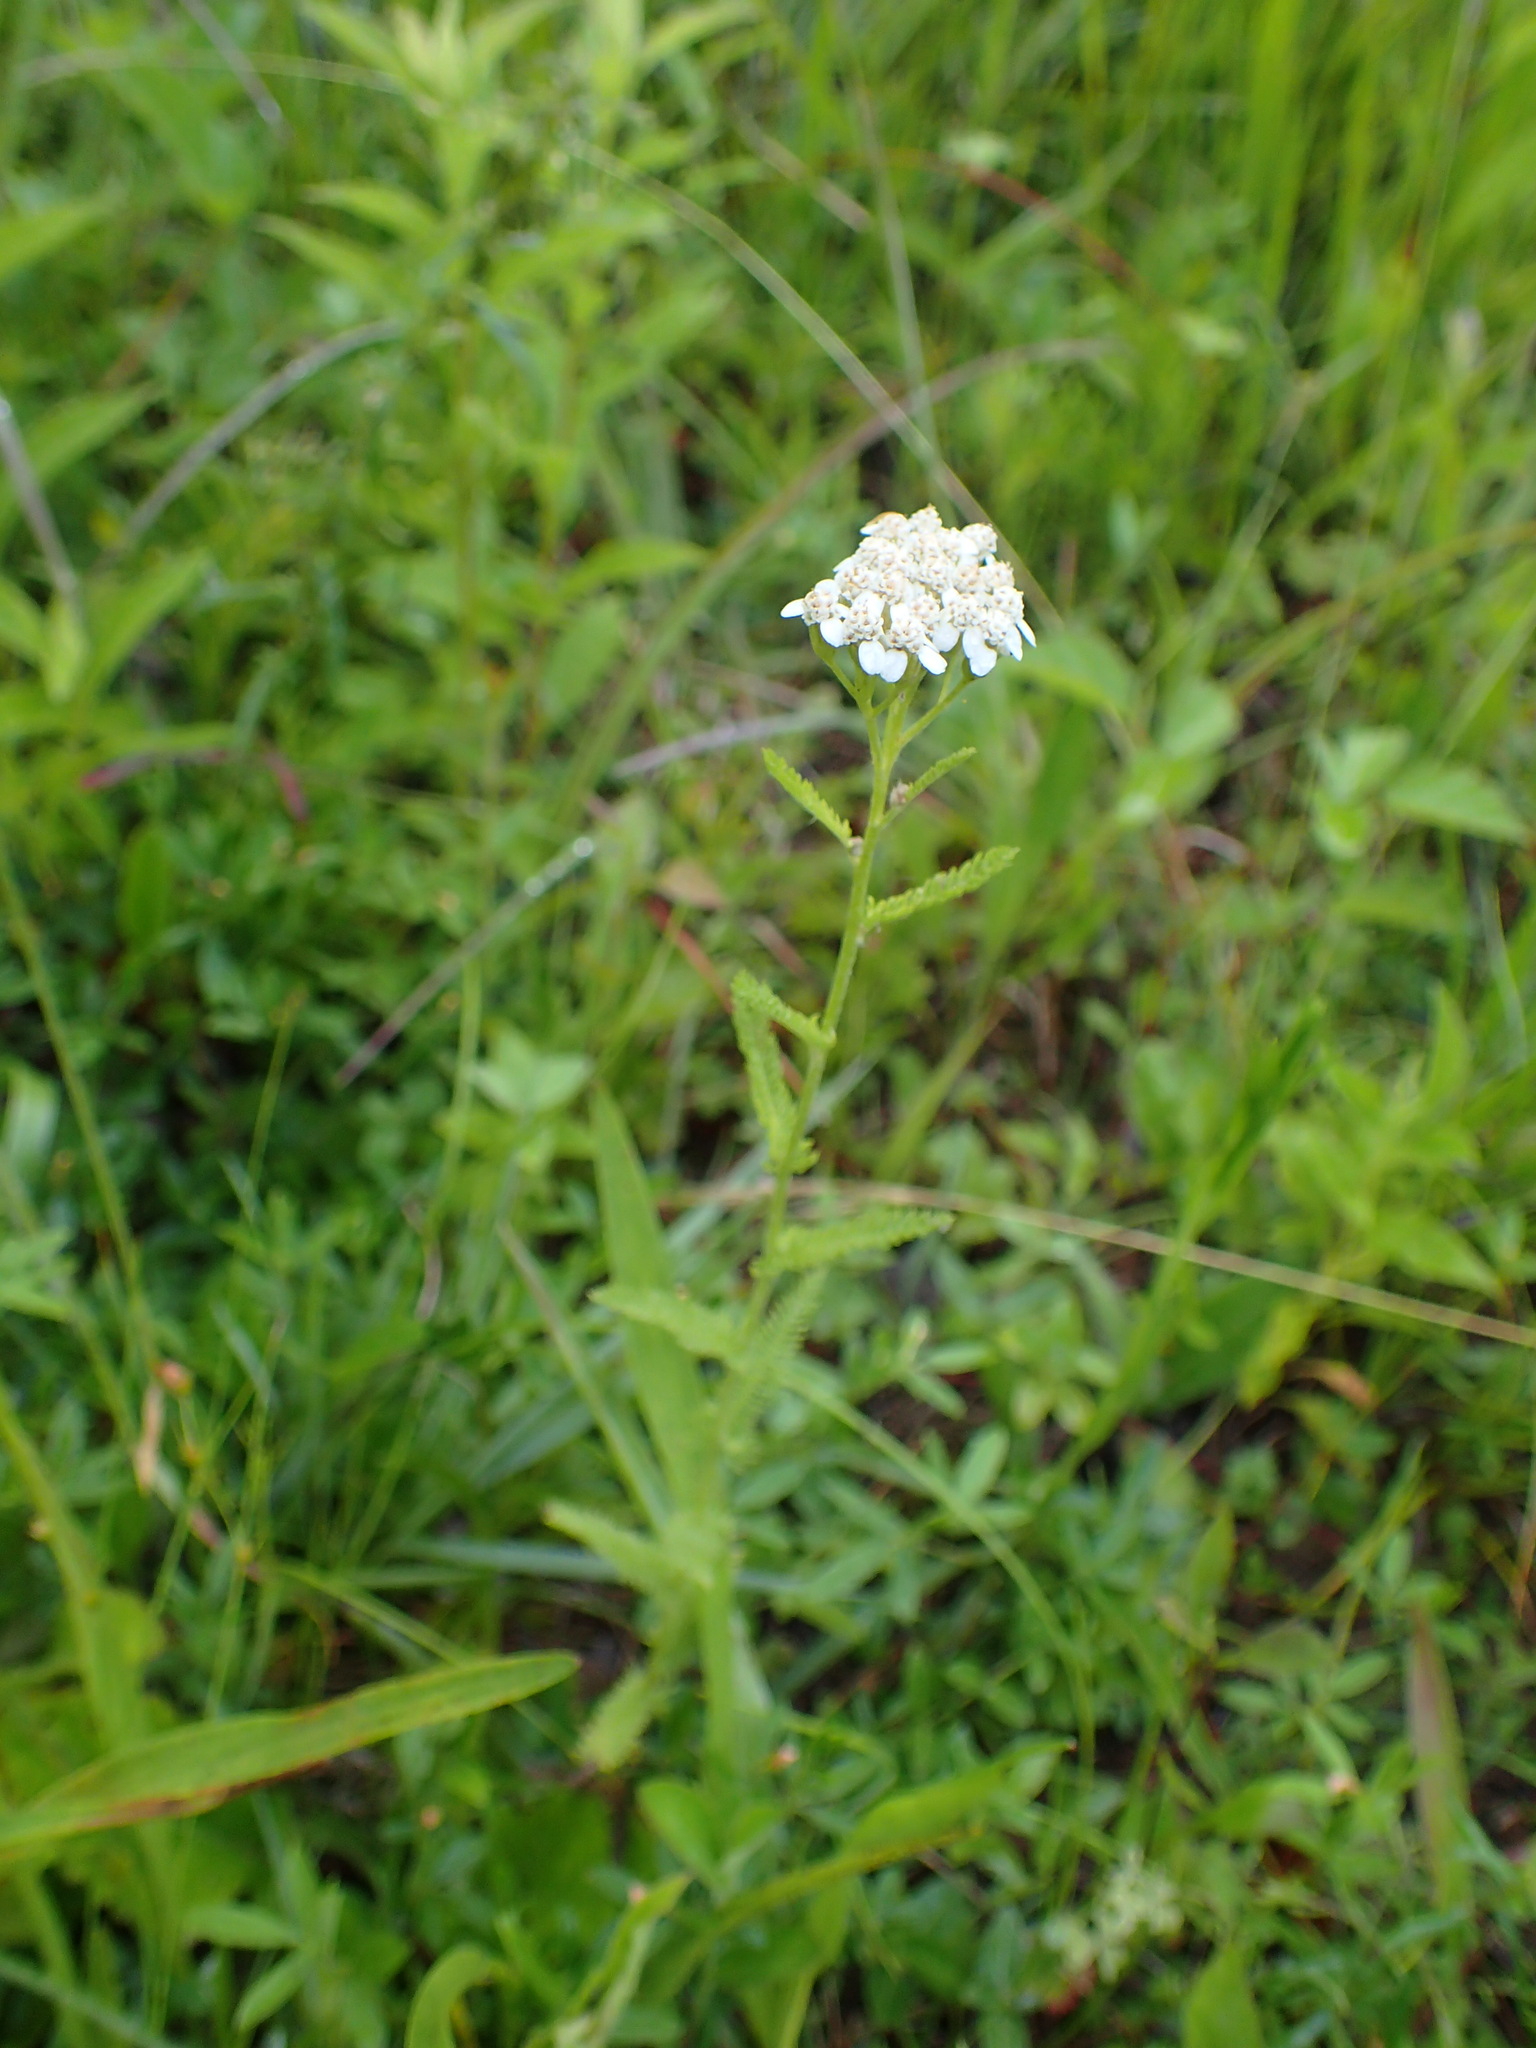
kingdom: Plantae
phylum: Tracheophyta
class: Magnoliopsida
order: Asterales
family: Asteraceae
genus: Achillea
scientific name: Achillea millefolium
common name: Yarrow
